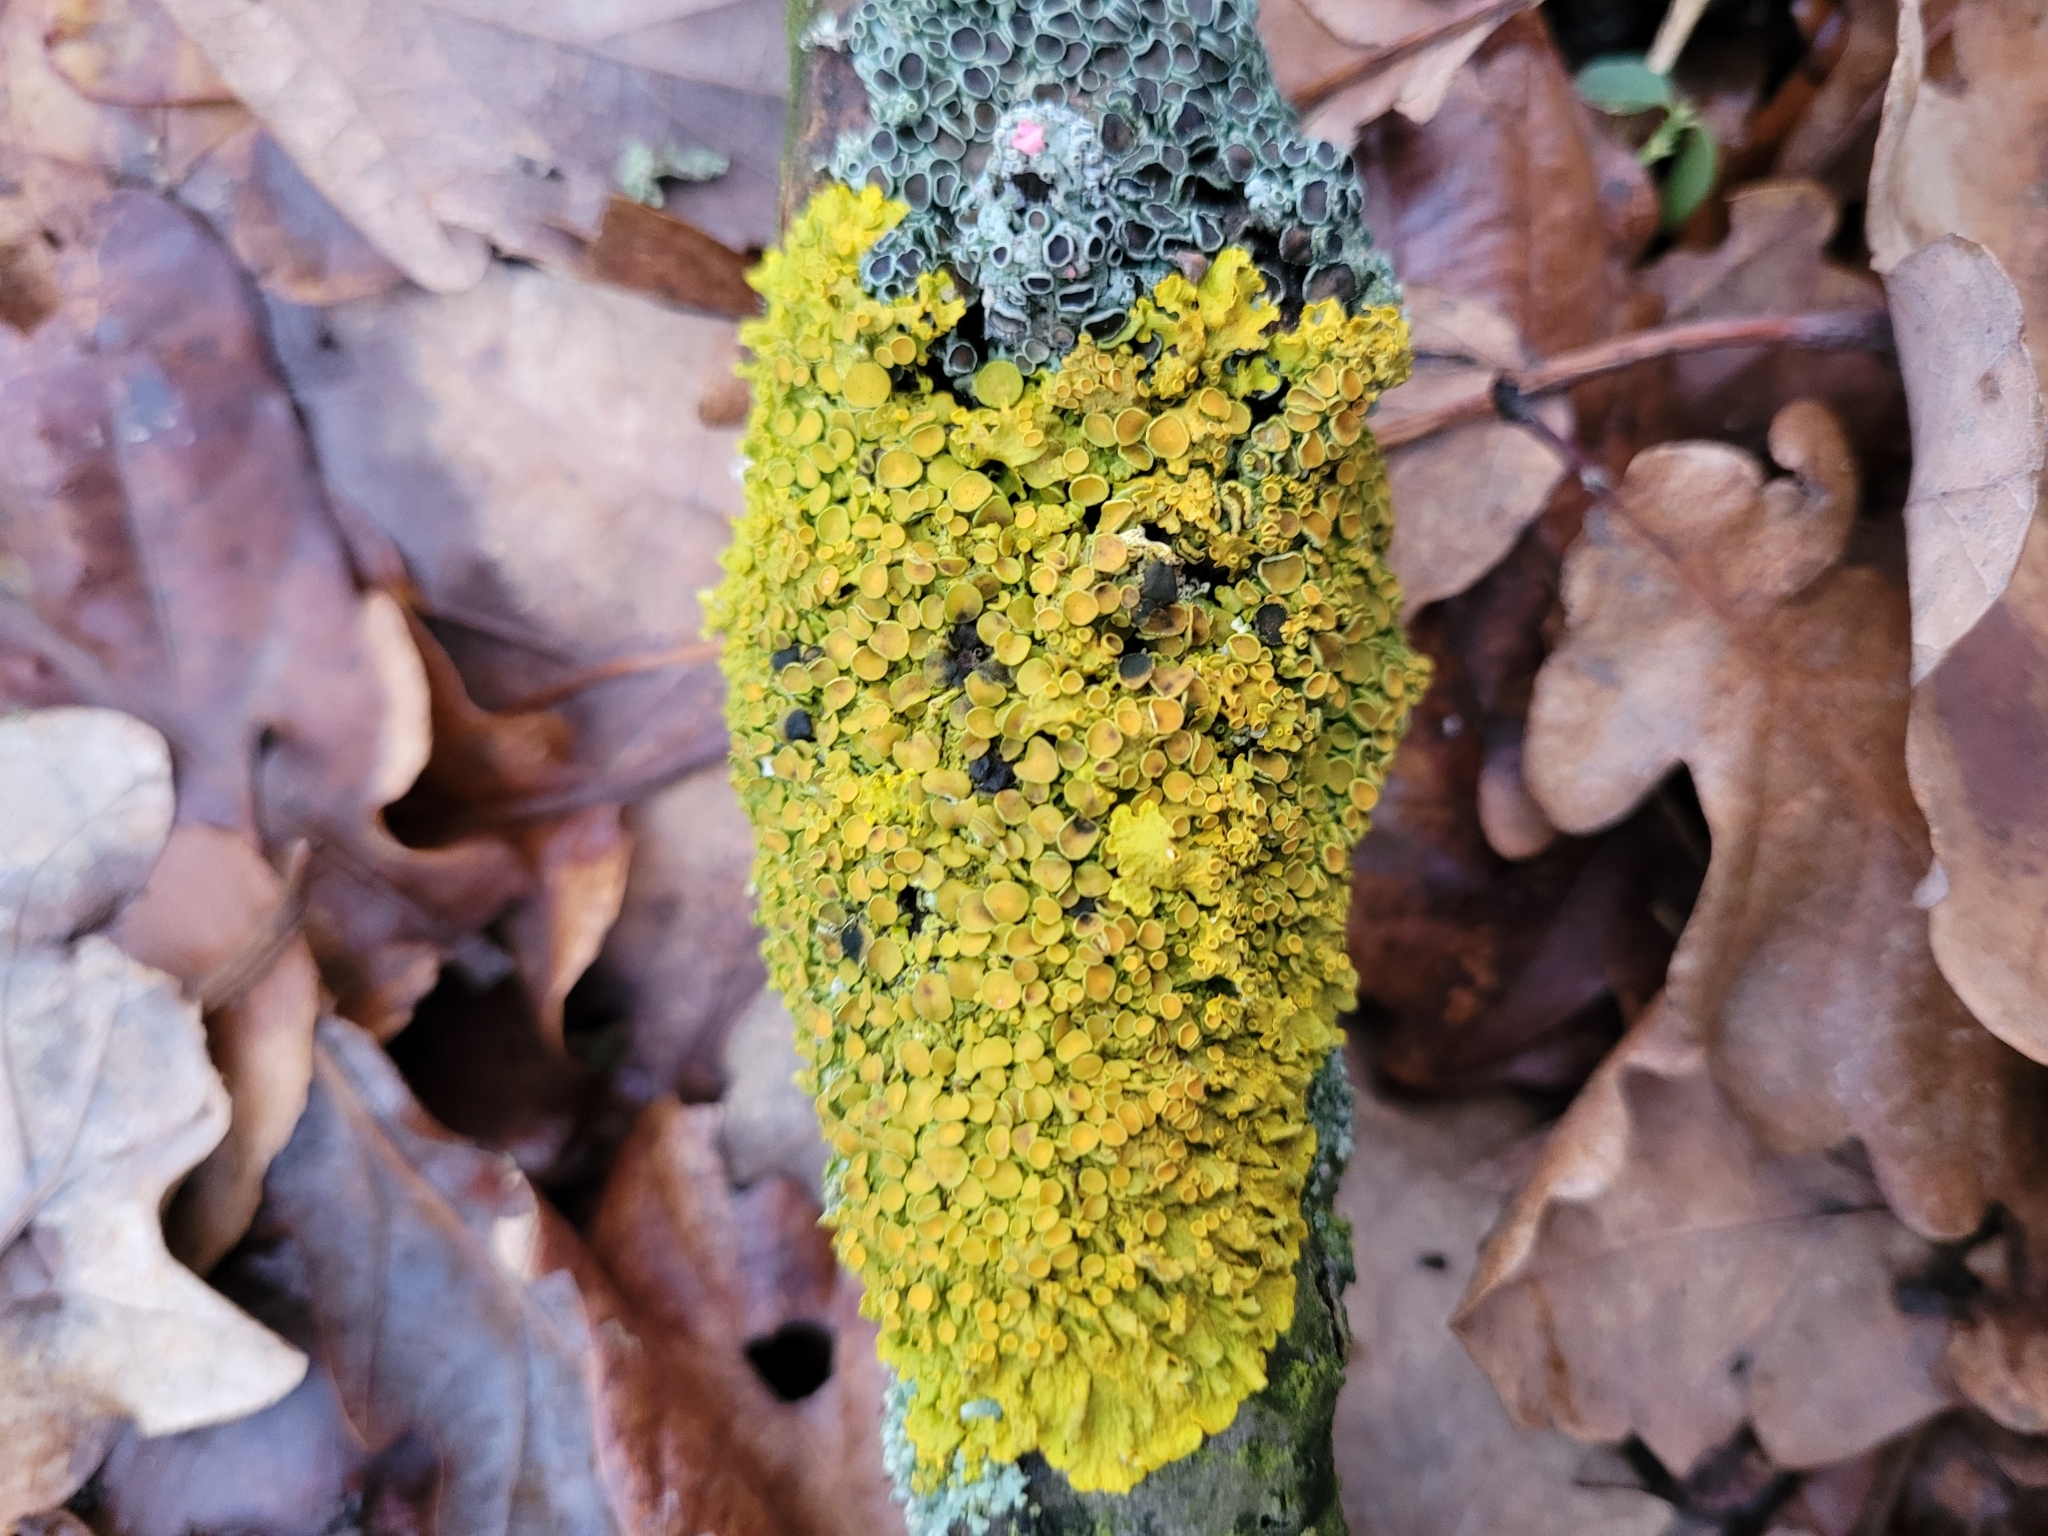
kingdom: Fungi
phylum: Ascomycota
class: Lecanoromycetes
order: Teloschistales
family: Teloschistaceae
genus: Xanthoria
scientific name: Xanthoria parietina
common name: Common orange lichen
